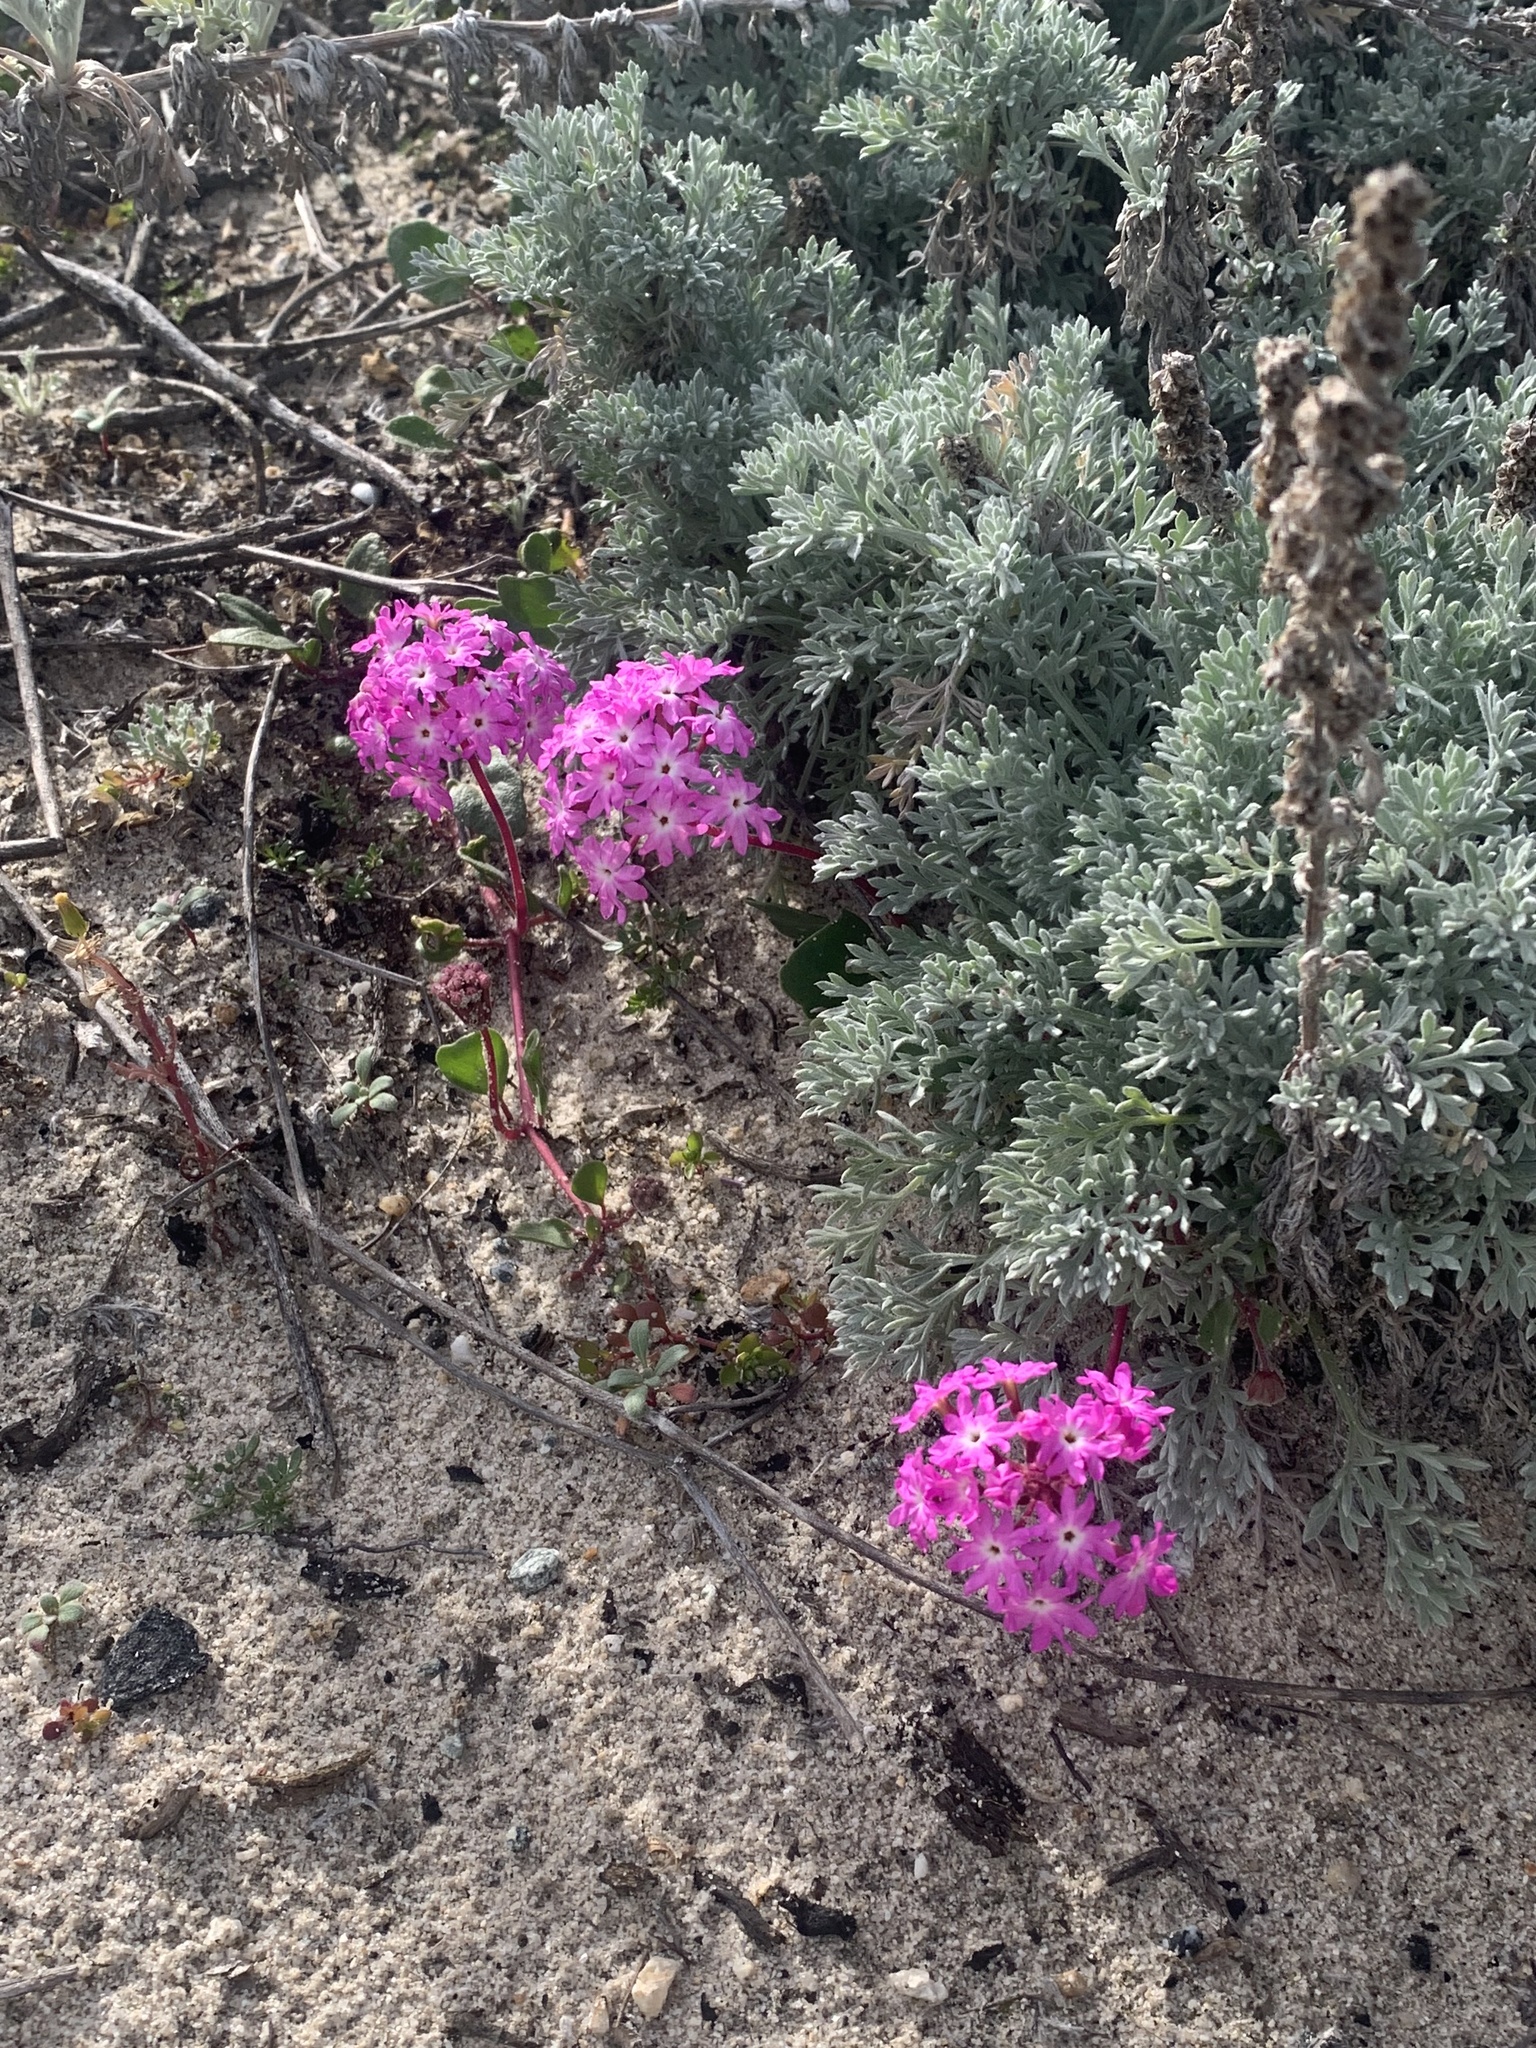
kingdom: Plantae
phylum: Tracheophyta
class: Magnoliopsida
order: Caryophyllales
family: Nyctaginaceae
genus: Abronia
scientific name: Abronia umbellata
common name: Sand-verbena
